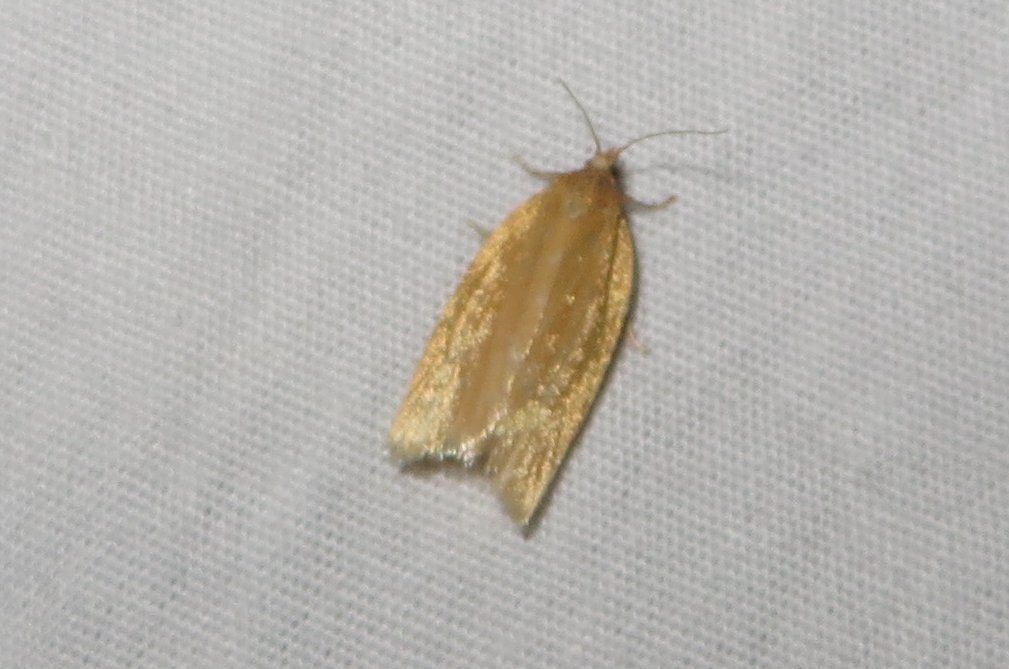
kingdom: Animalia
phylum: Arthropoda
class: Insecta
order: Lepidoptera
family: Tortricidae
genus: Clepsis
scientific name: Clepsis clemensiana
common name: Clemens' clepsis moth
